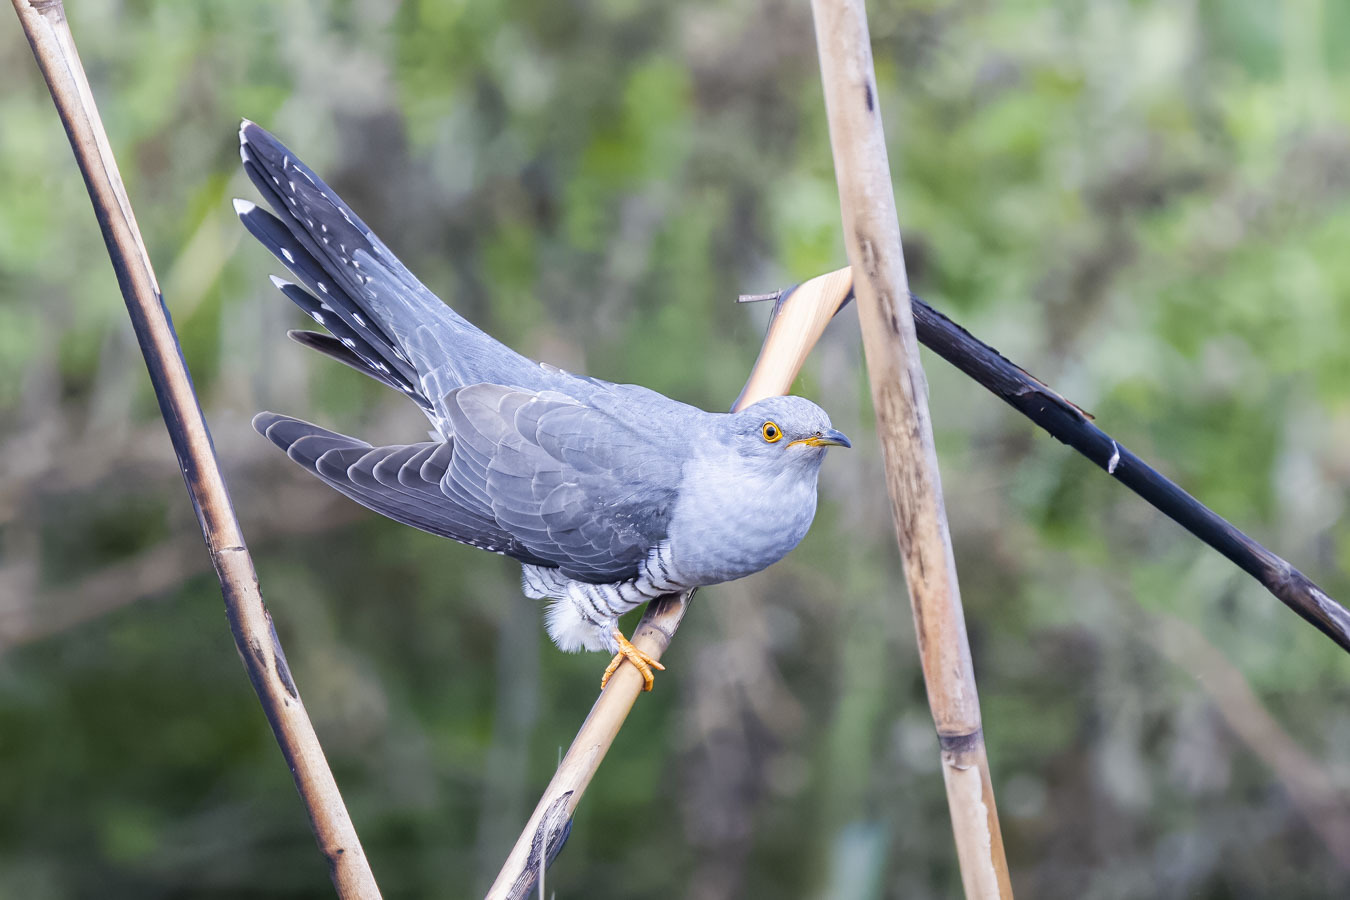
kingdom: Animalia
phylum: Chordata
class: Aves
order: Cuculiformes
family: Cuculidae
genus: Cuculus
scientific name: Cuculus canorus
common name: Common cuckoo
